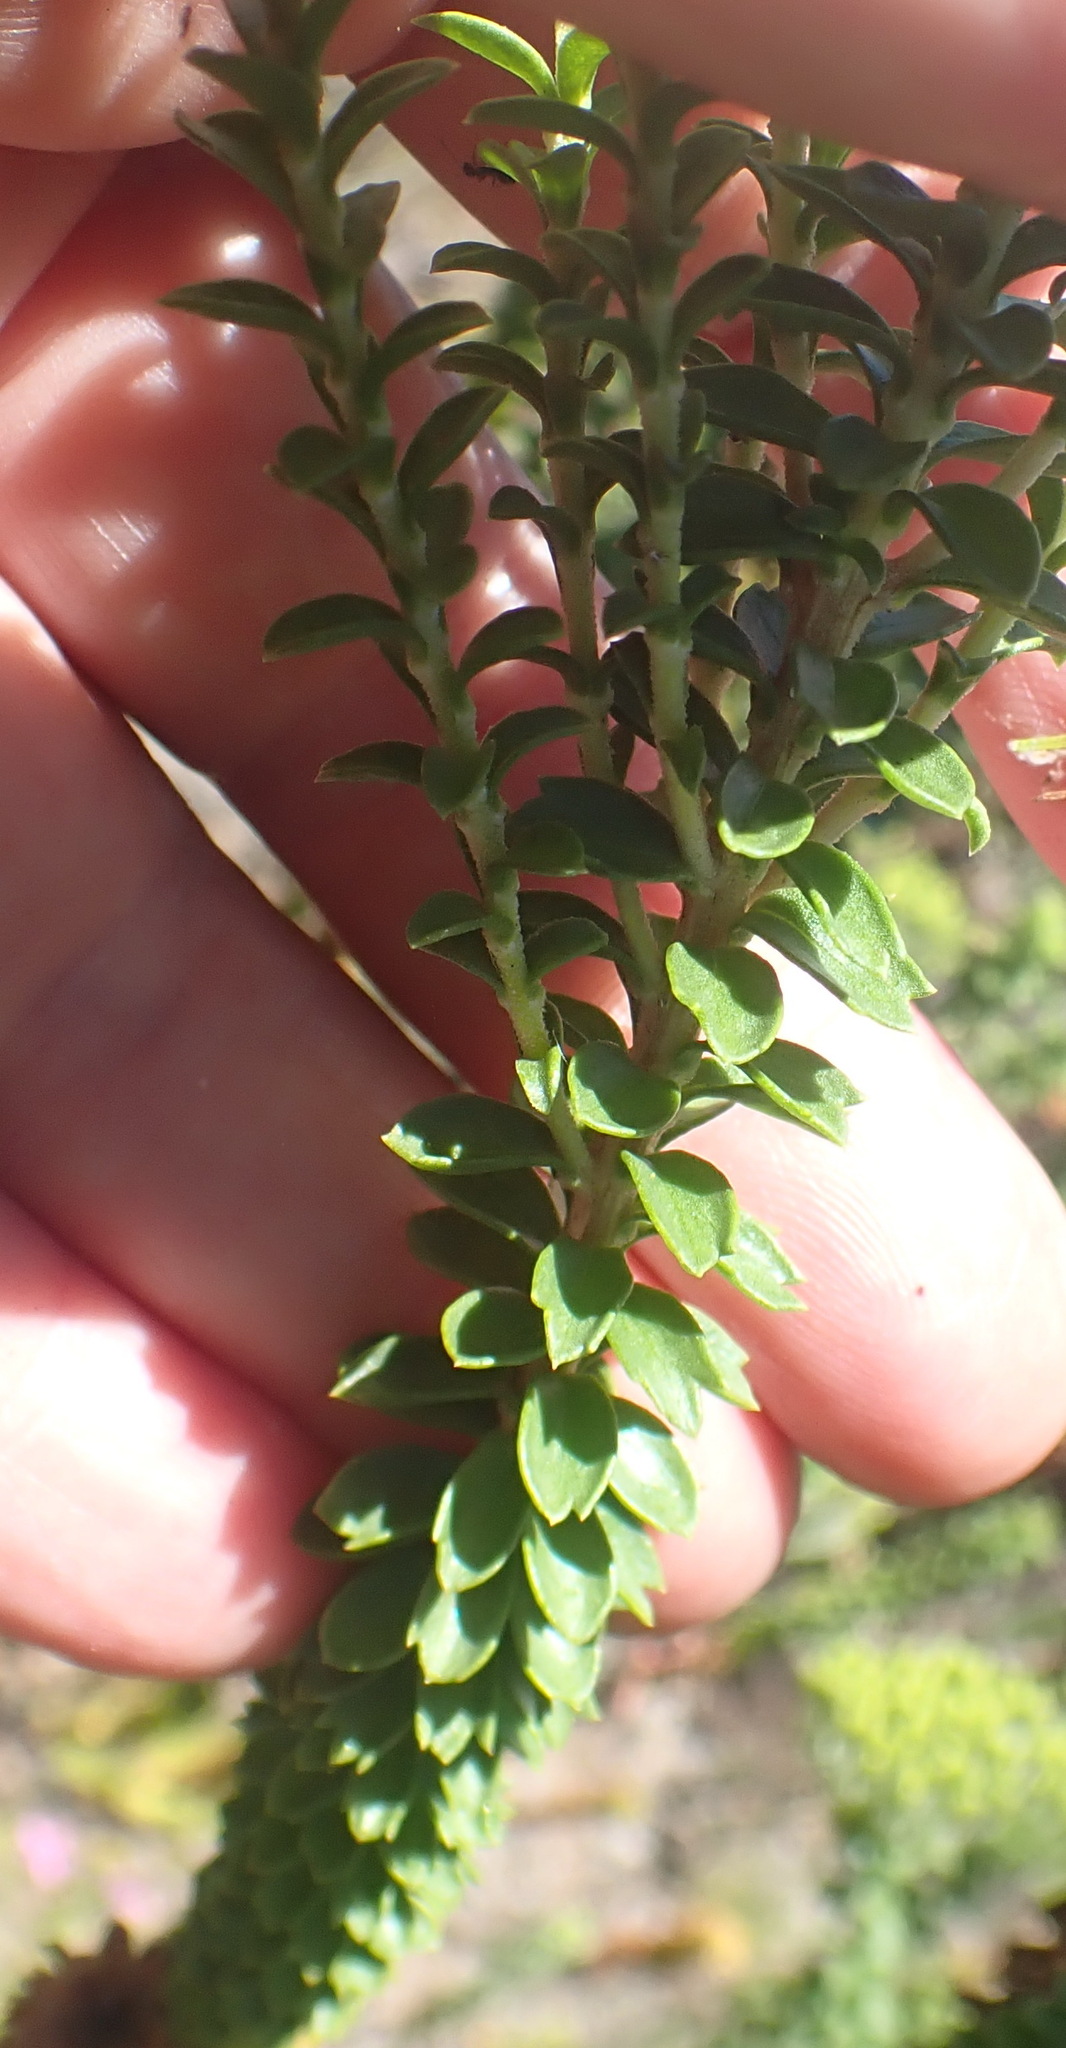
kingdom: Plantae
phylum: Tracheophyta
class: Magnoliopsida
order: Asterales
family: Asteraceae
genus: Athanasia
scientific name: Athanasia quinquedentata
